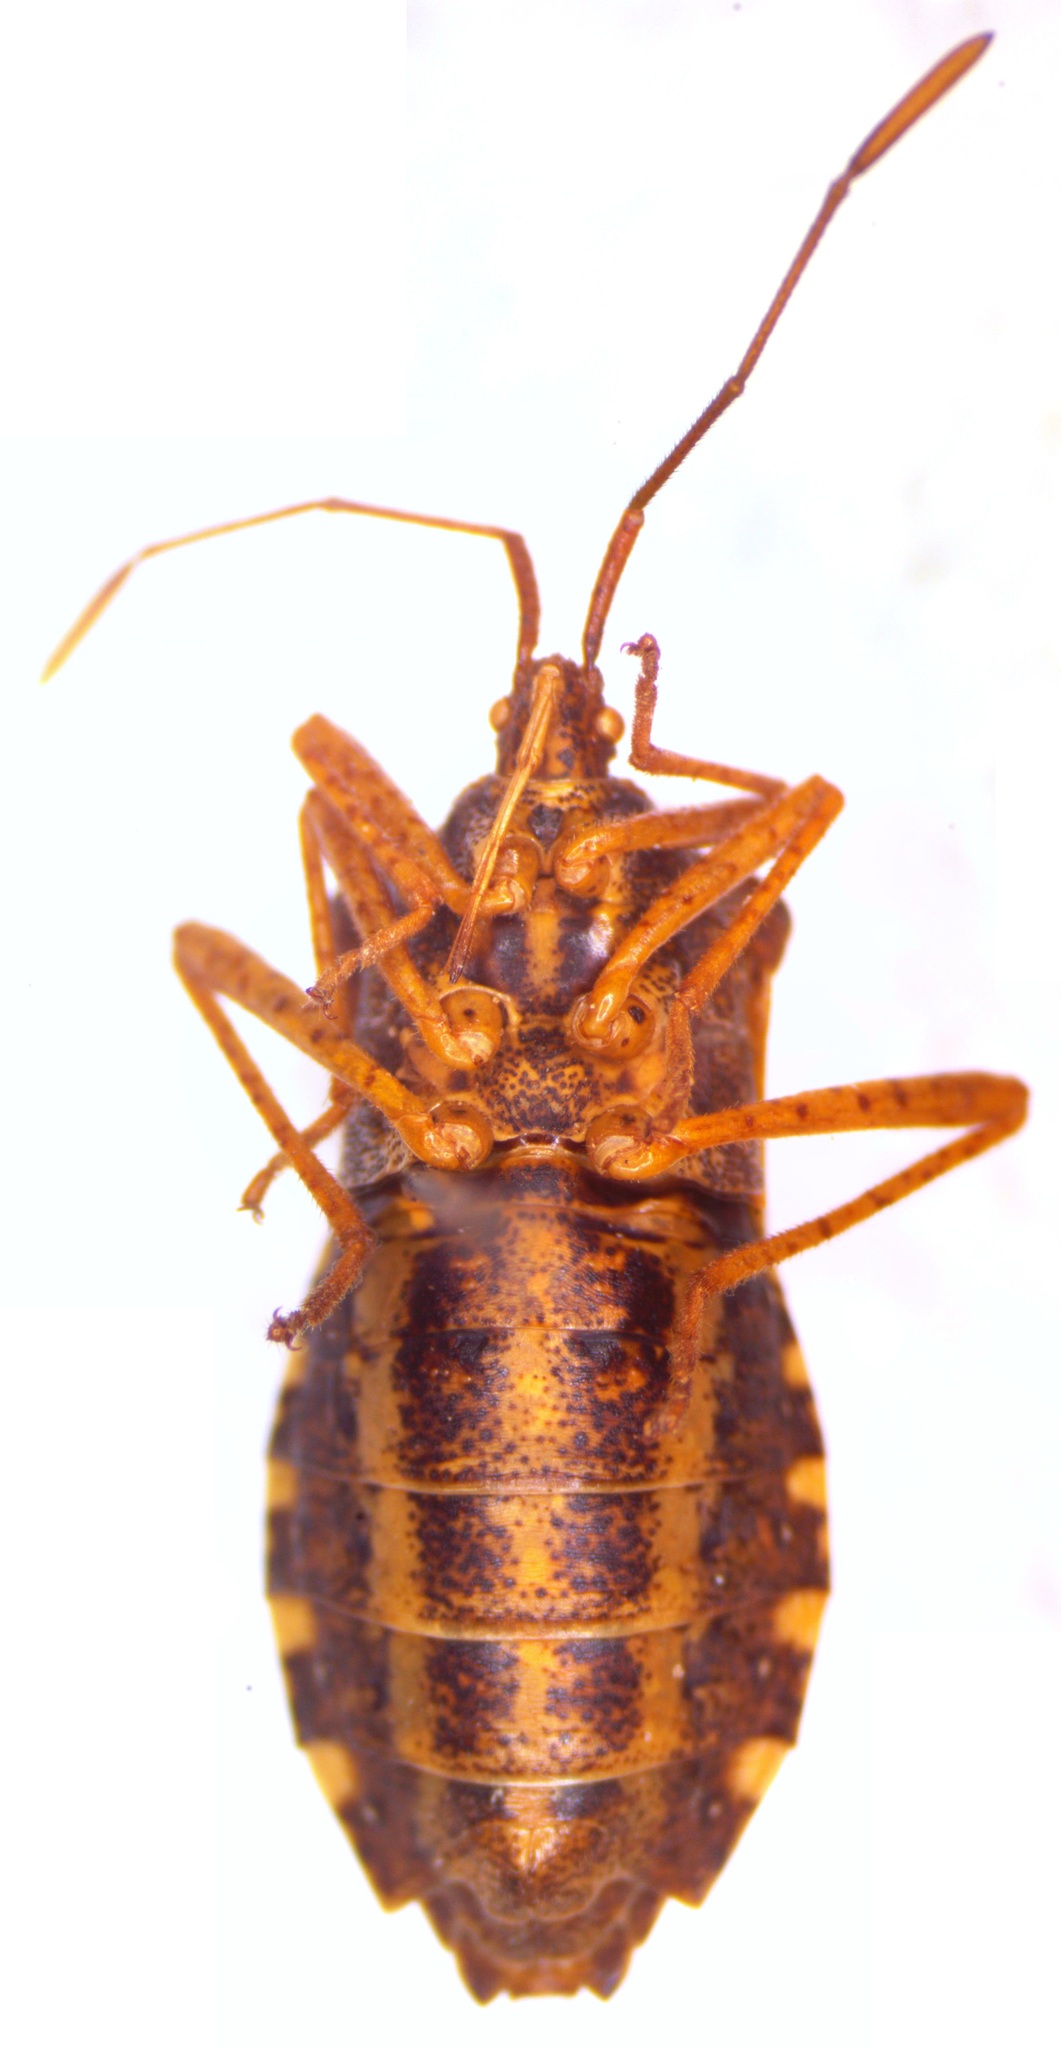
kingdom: Animalia
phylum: Arthropoda
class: Insecta
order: Hemiptera
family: Coreidae
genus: Anasa
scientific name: Anasa conspersa
